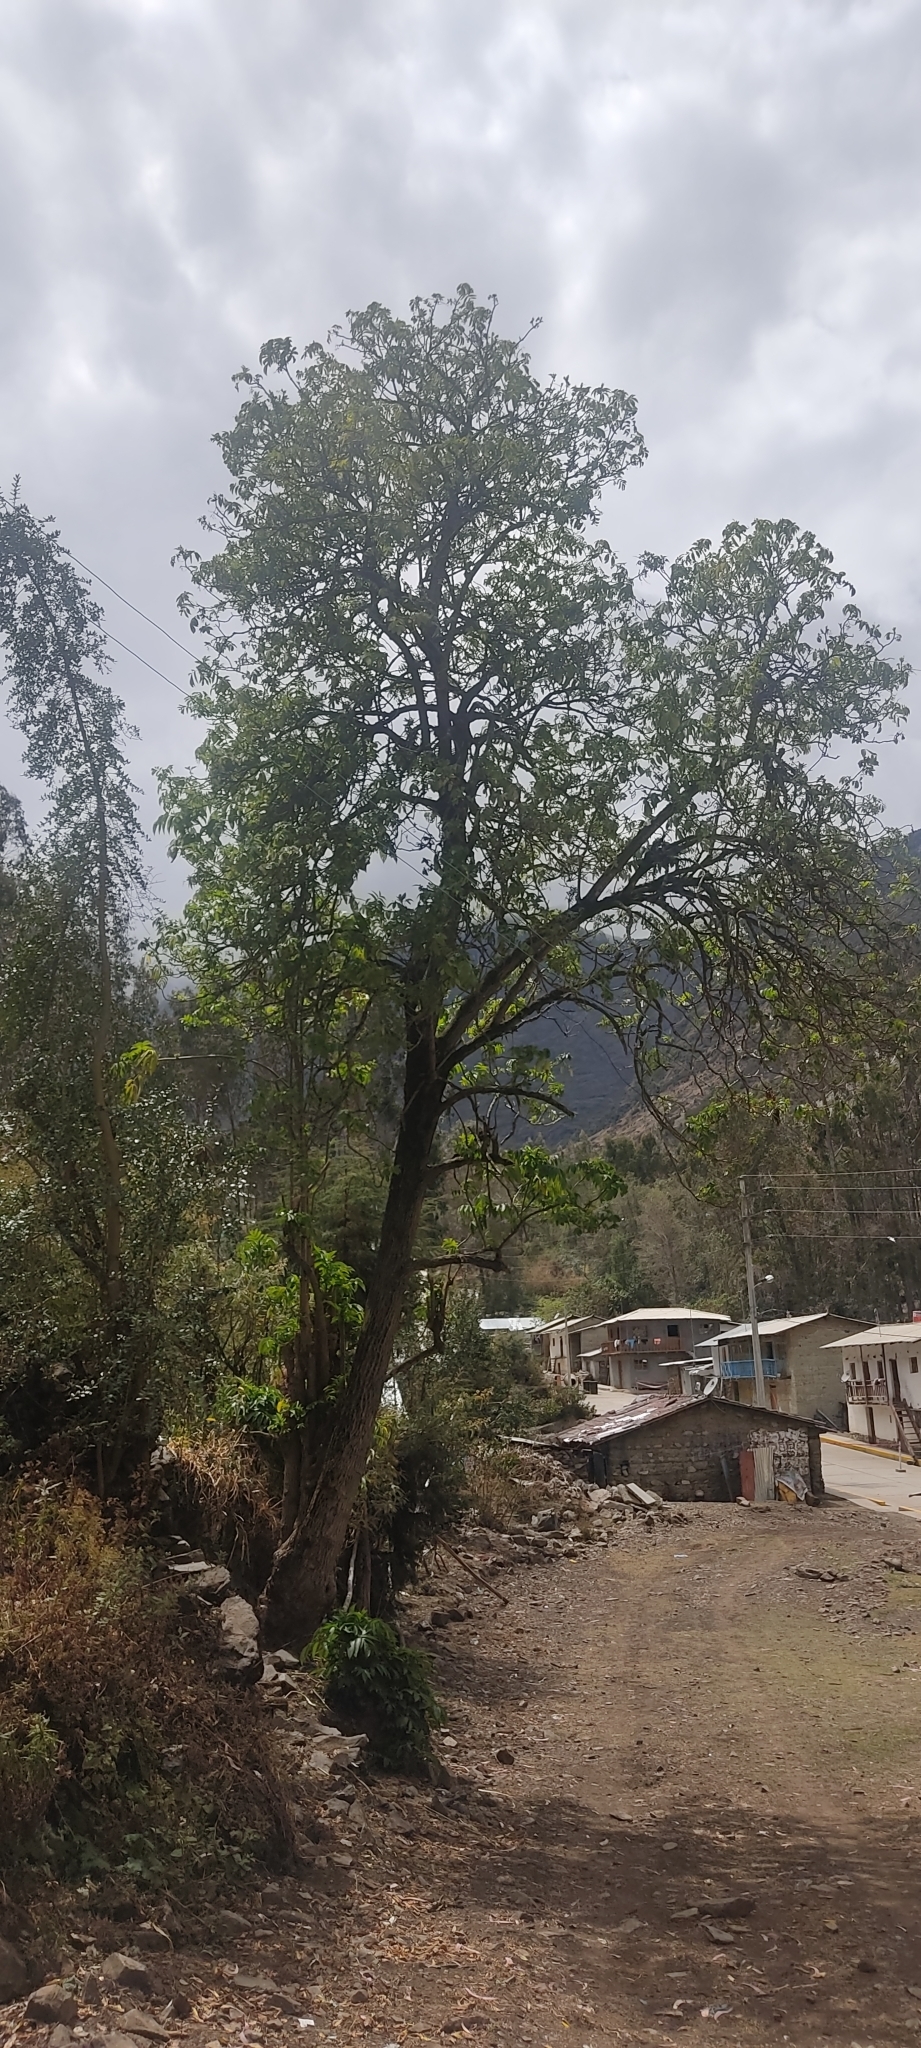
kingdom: Plantae
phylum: Tracheophyta
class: Magnoliopsida
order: Dipsacales
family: Viburnaceae
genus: Sambucus
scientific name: Sambucus peruviana
